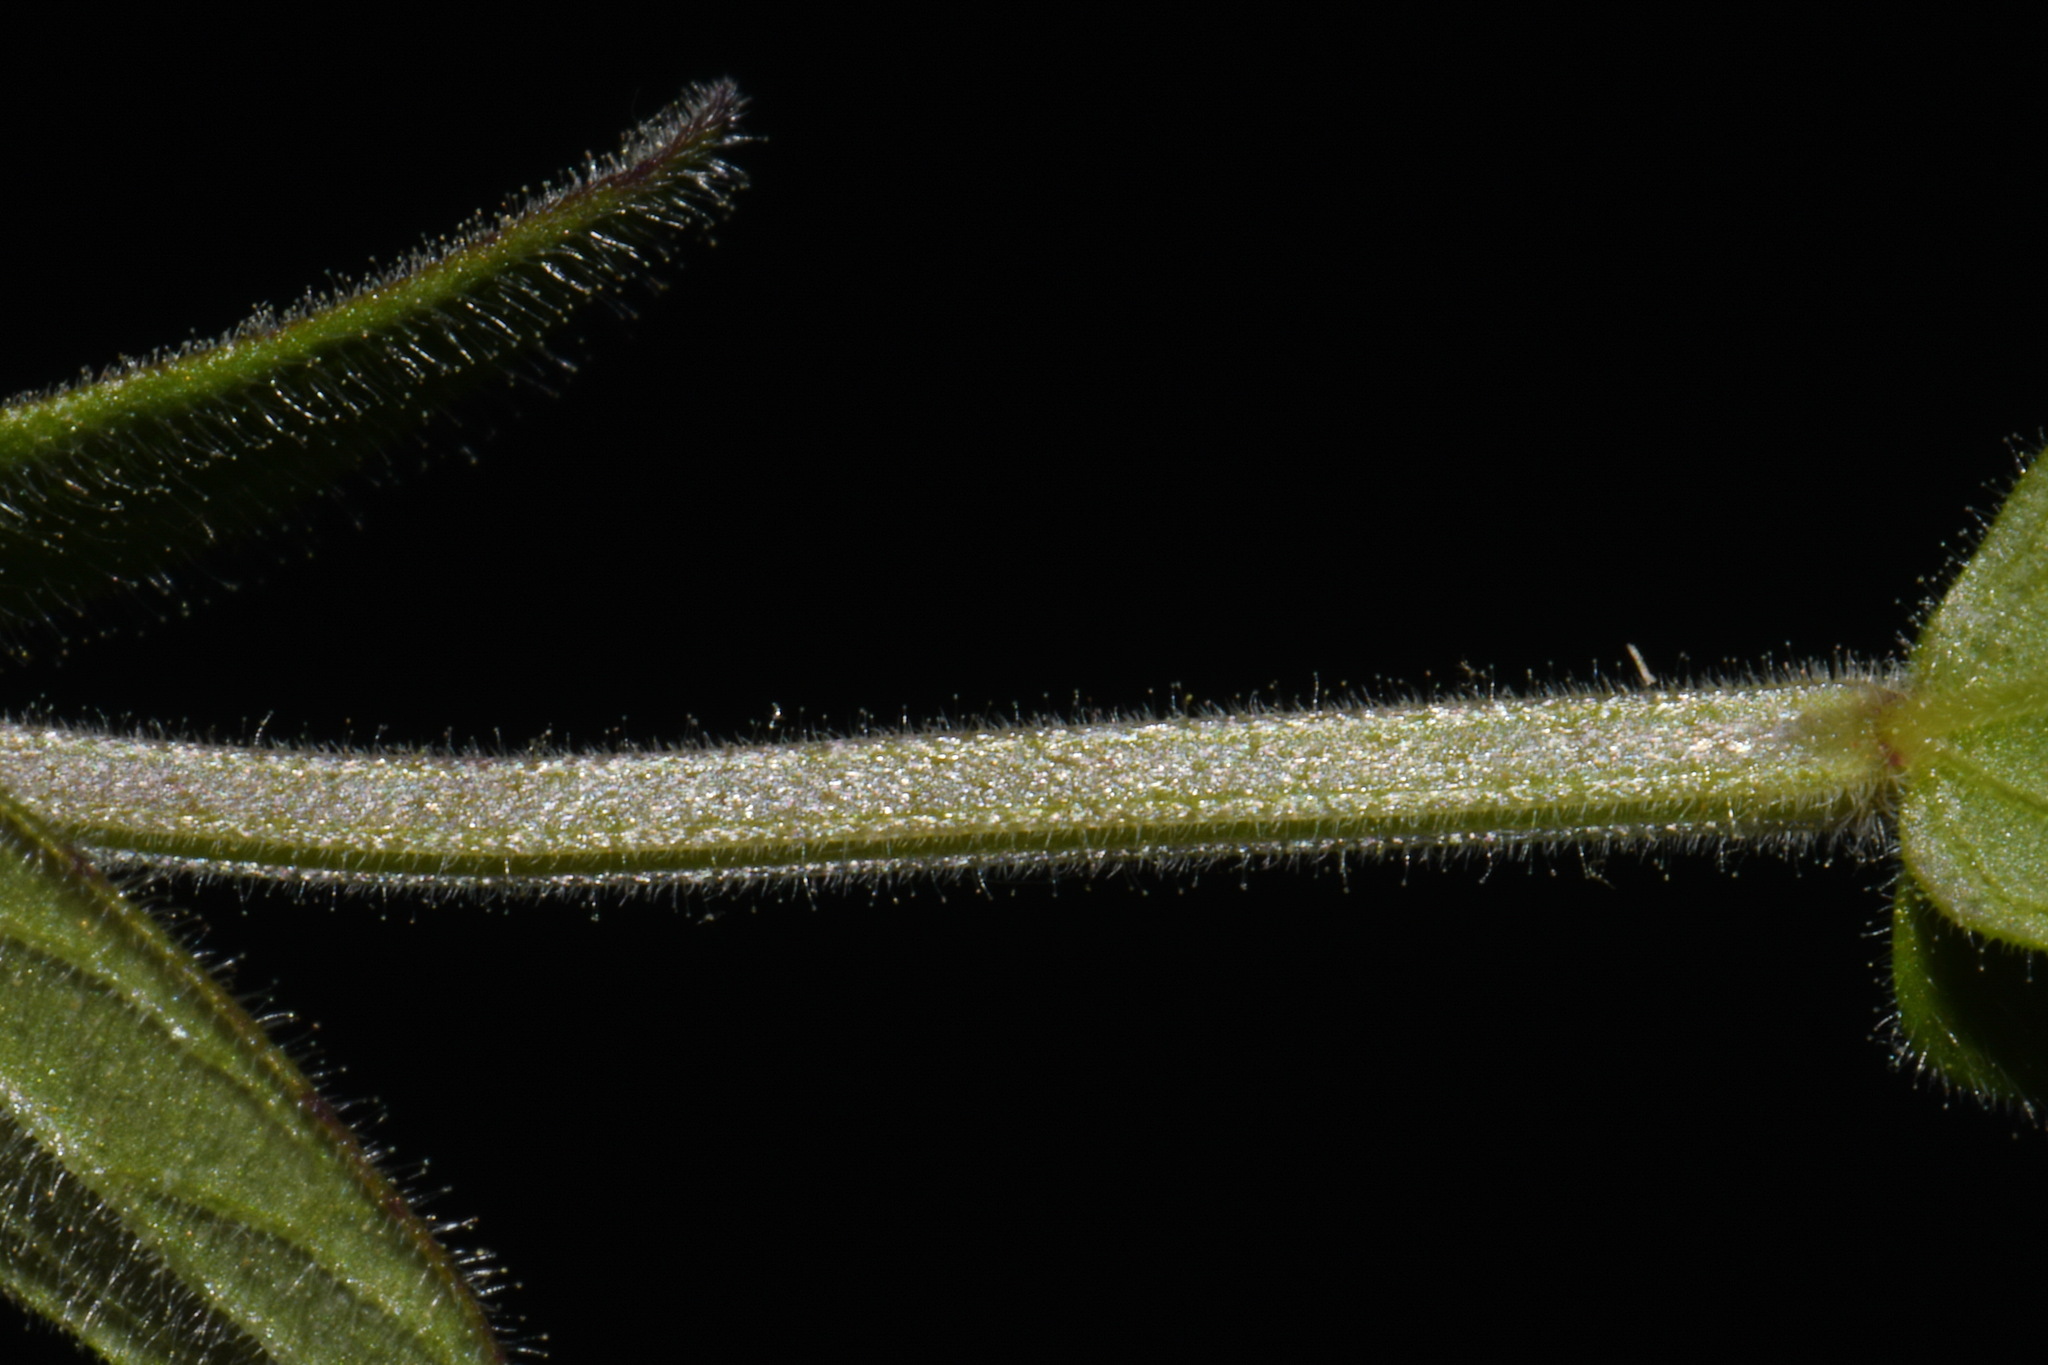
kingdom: Plantae
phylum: Tracheophyta
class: Magnoliopsida
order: Lamiales
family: Lamiaceae
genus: Scutellaria
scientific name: Scutellaria parvula
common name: Little scullcap
